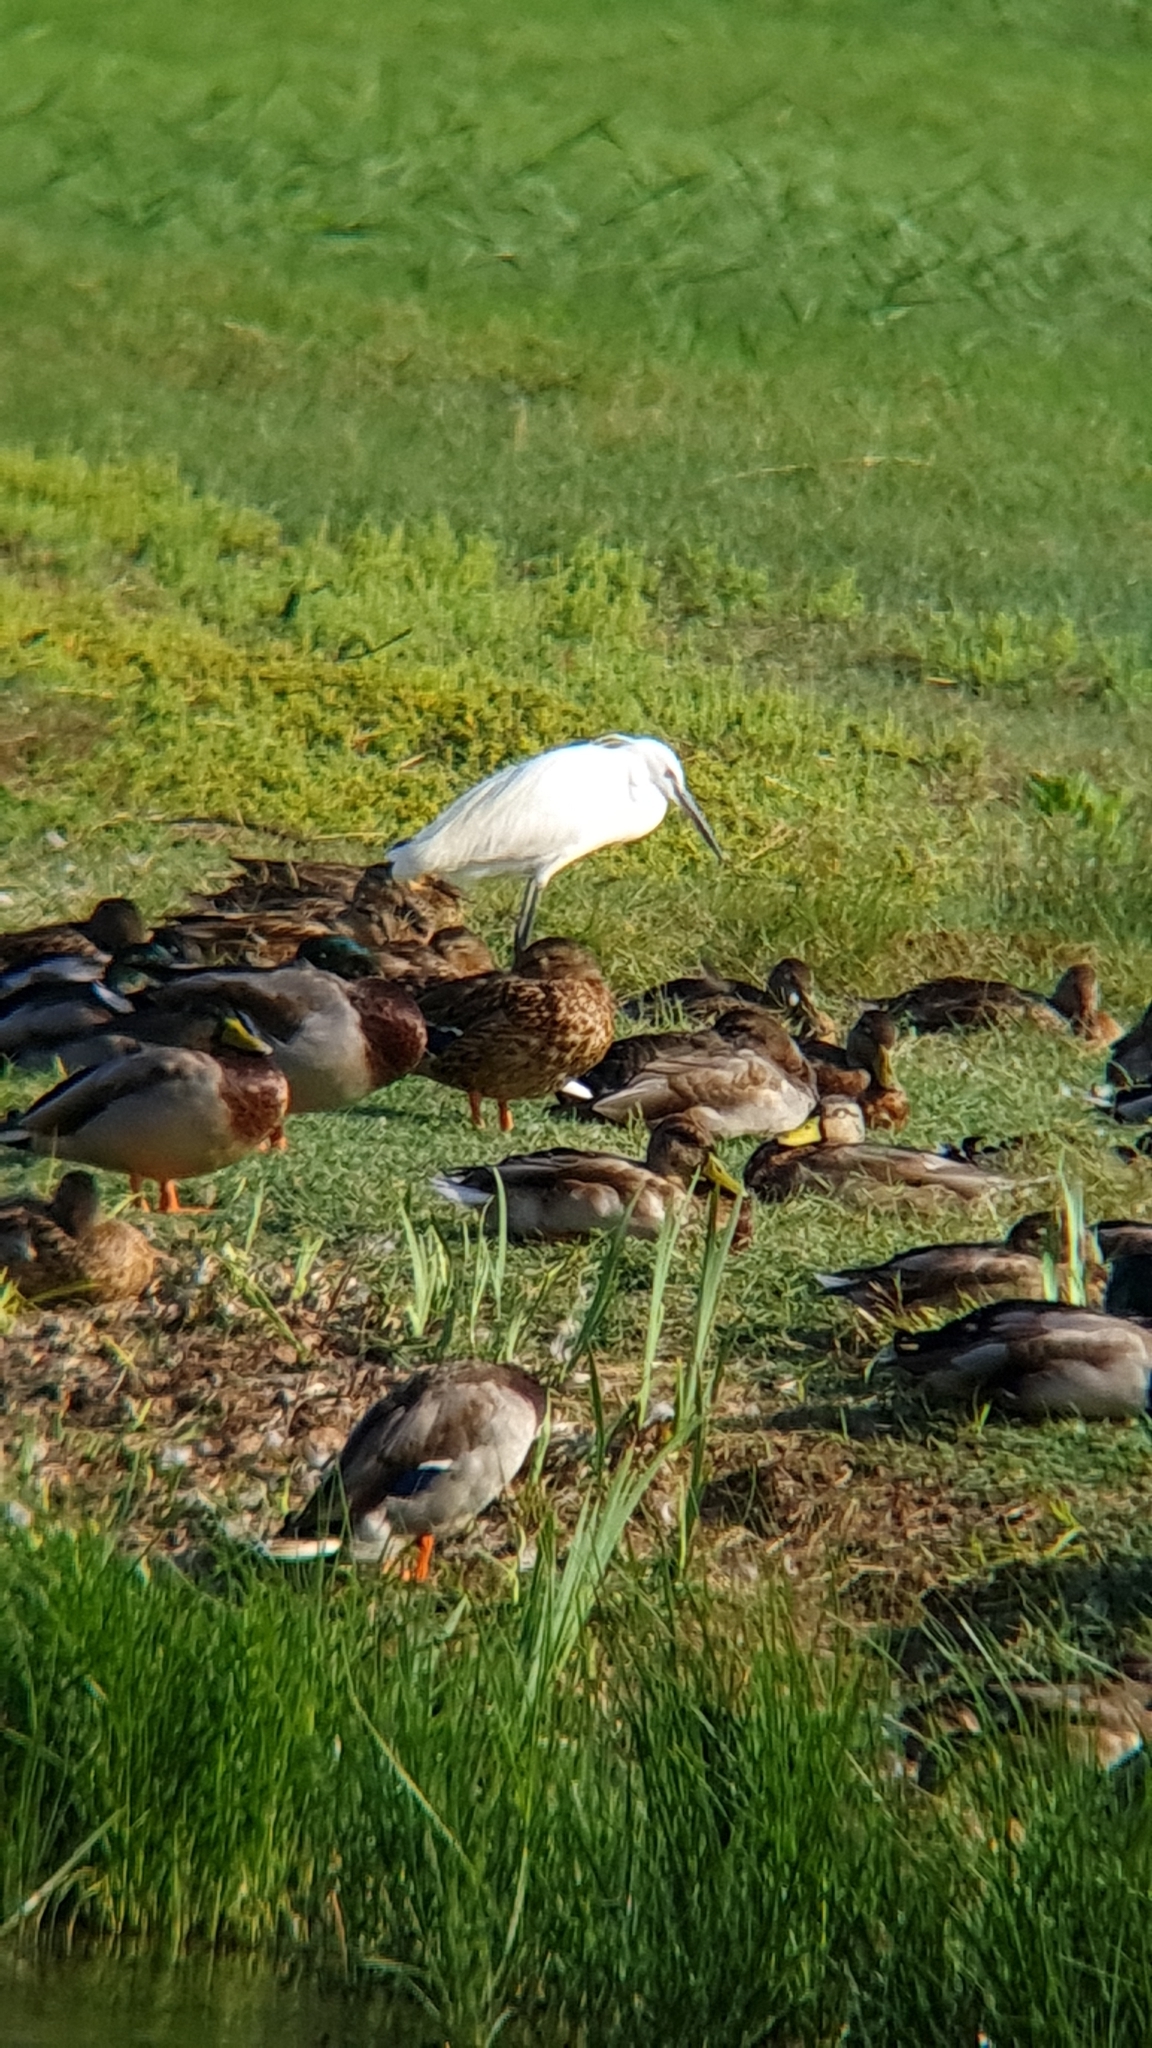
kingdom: Animalia
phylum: Chordata
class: Aves
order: Pelecaniformes
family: Ardeidae
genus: Egretta
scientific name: Egretta garzetta
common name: Little egret
